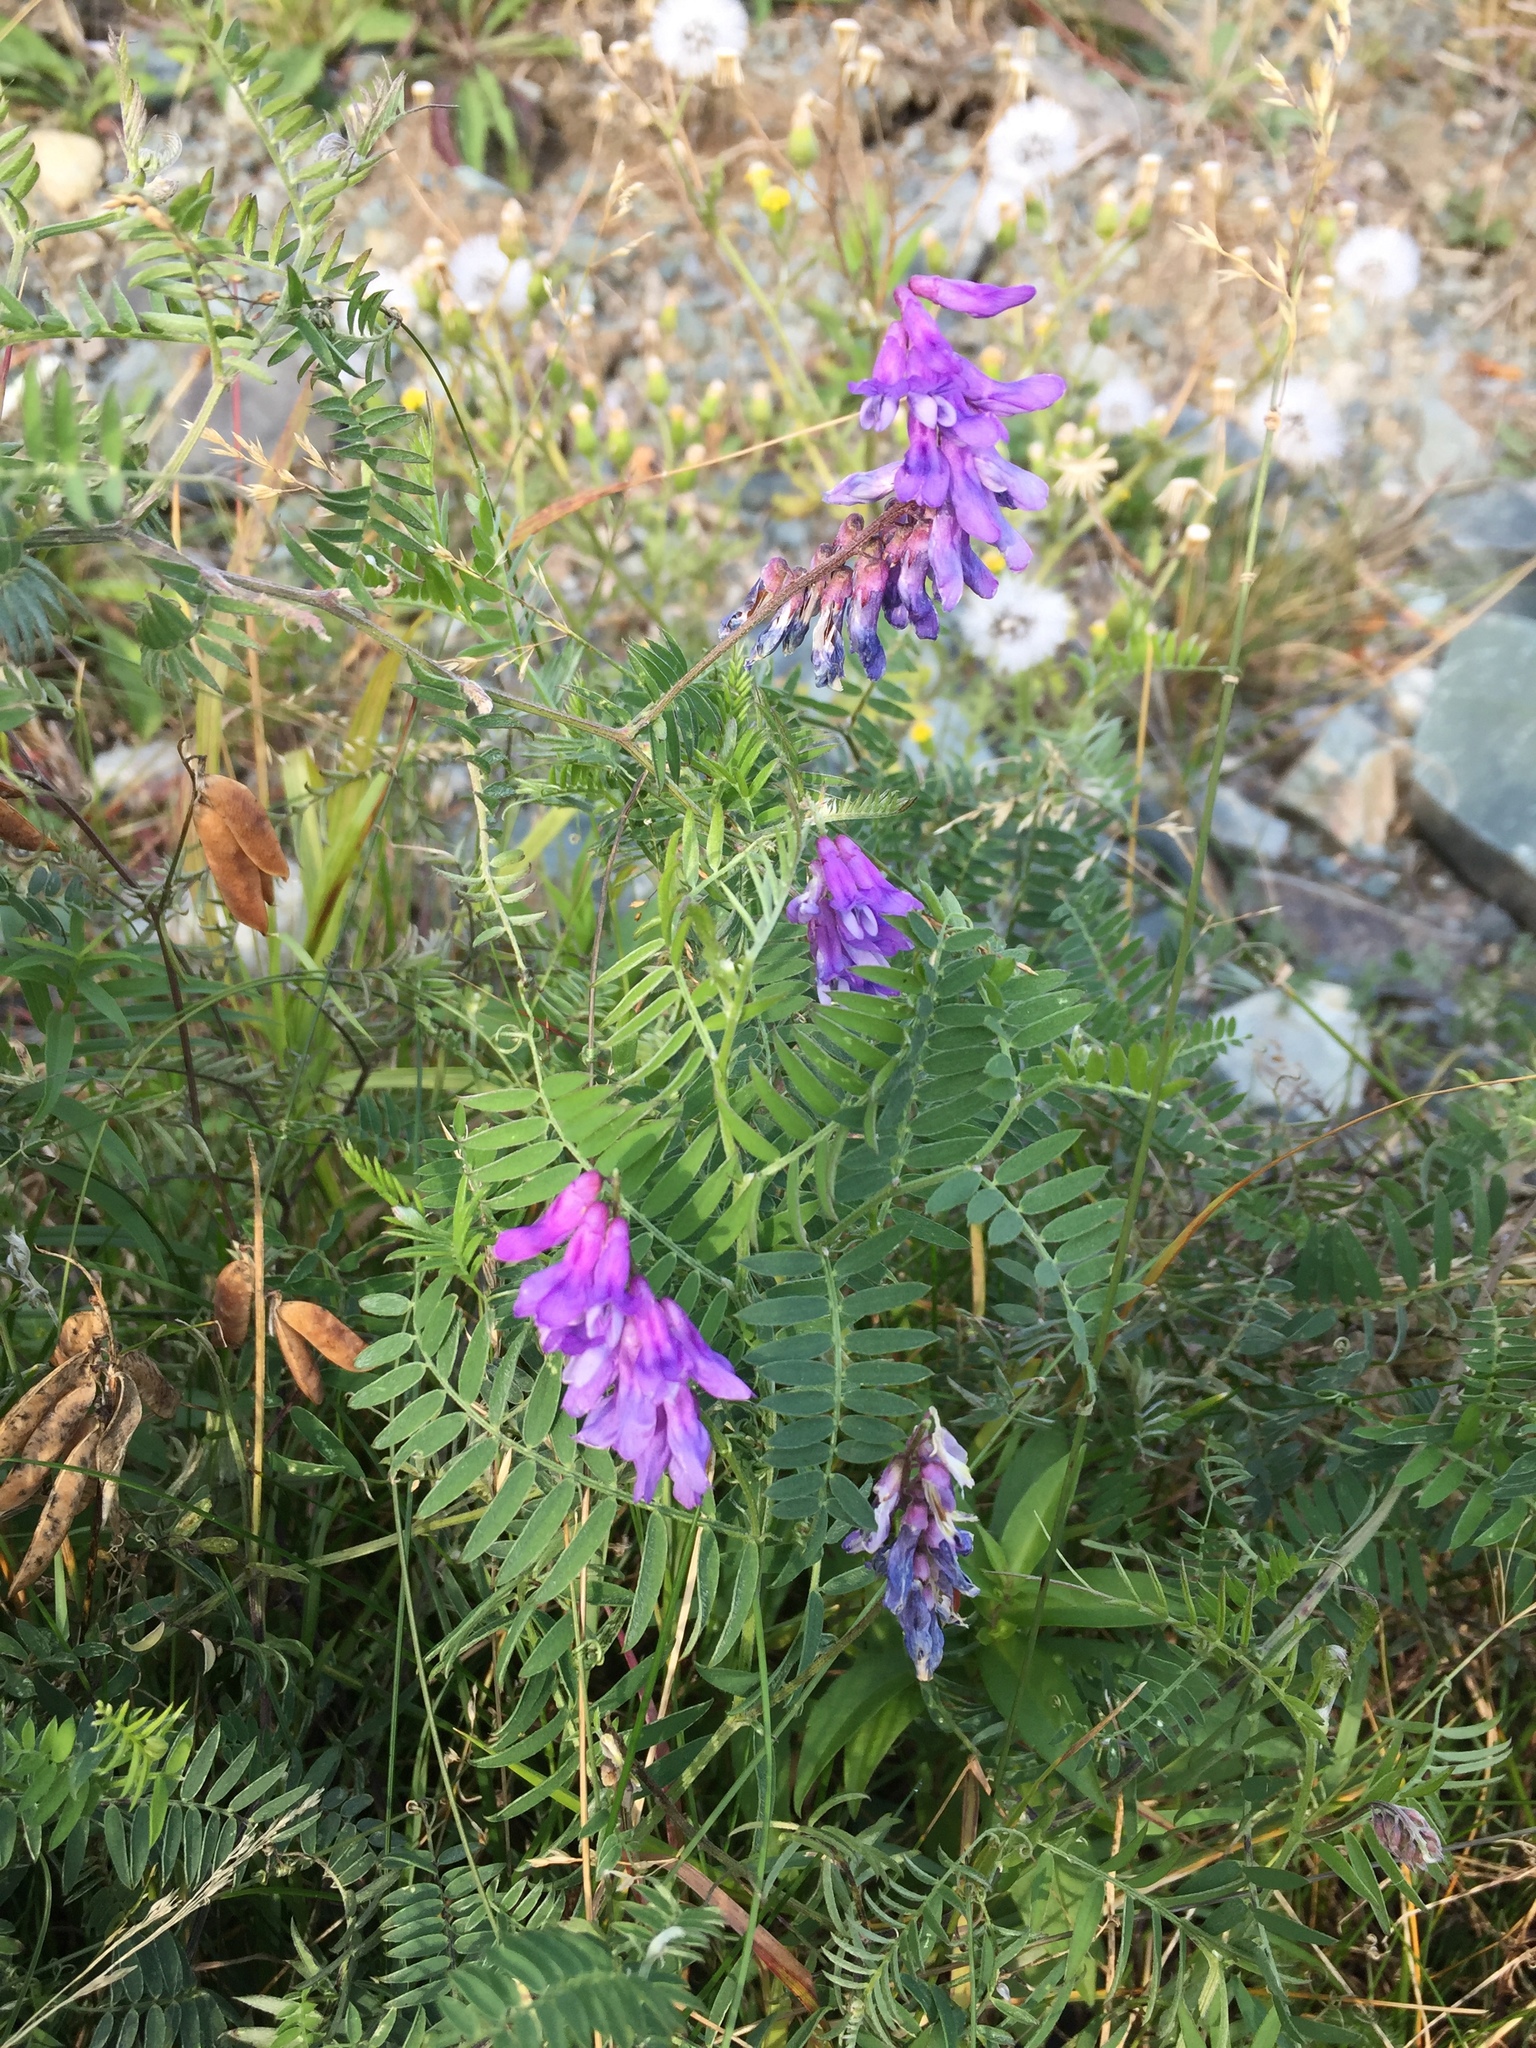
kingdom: Plantae
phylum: Tracheophyta
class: Magnoliopsida
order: Fabales
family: Fabaceae
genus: Vicia
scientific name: Vicia cracca
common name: Bird vetch
